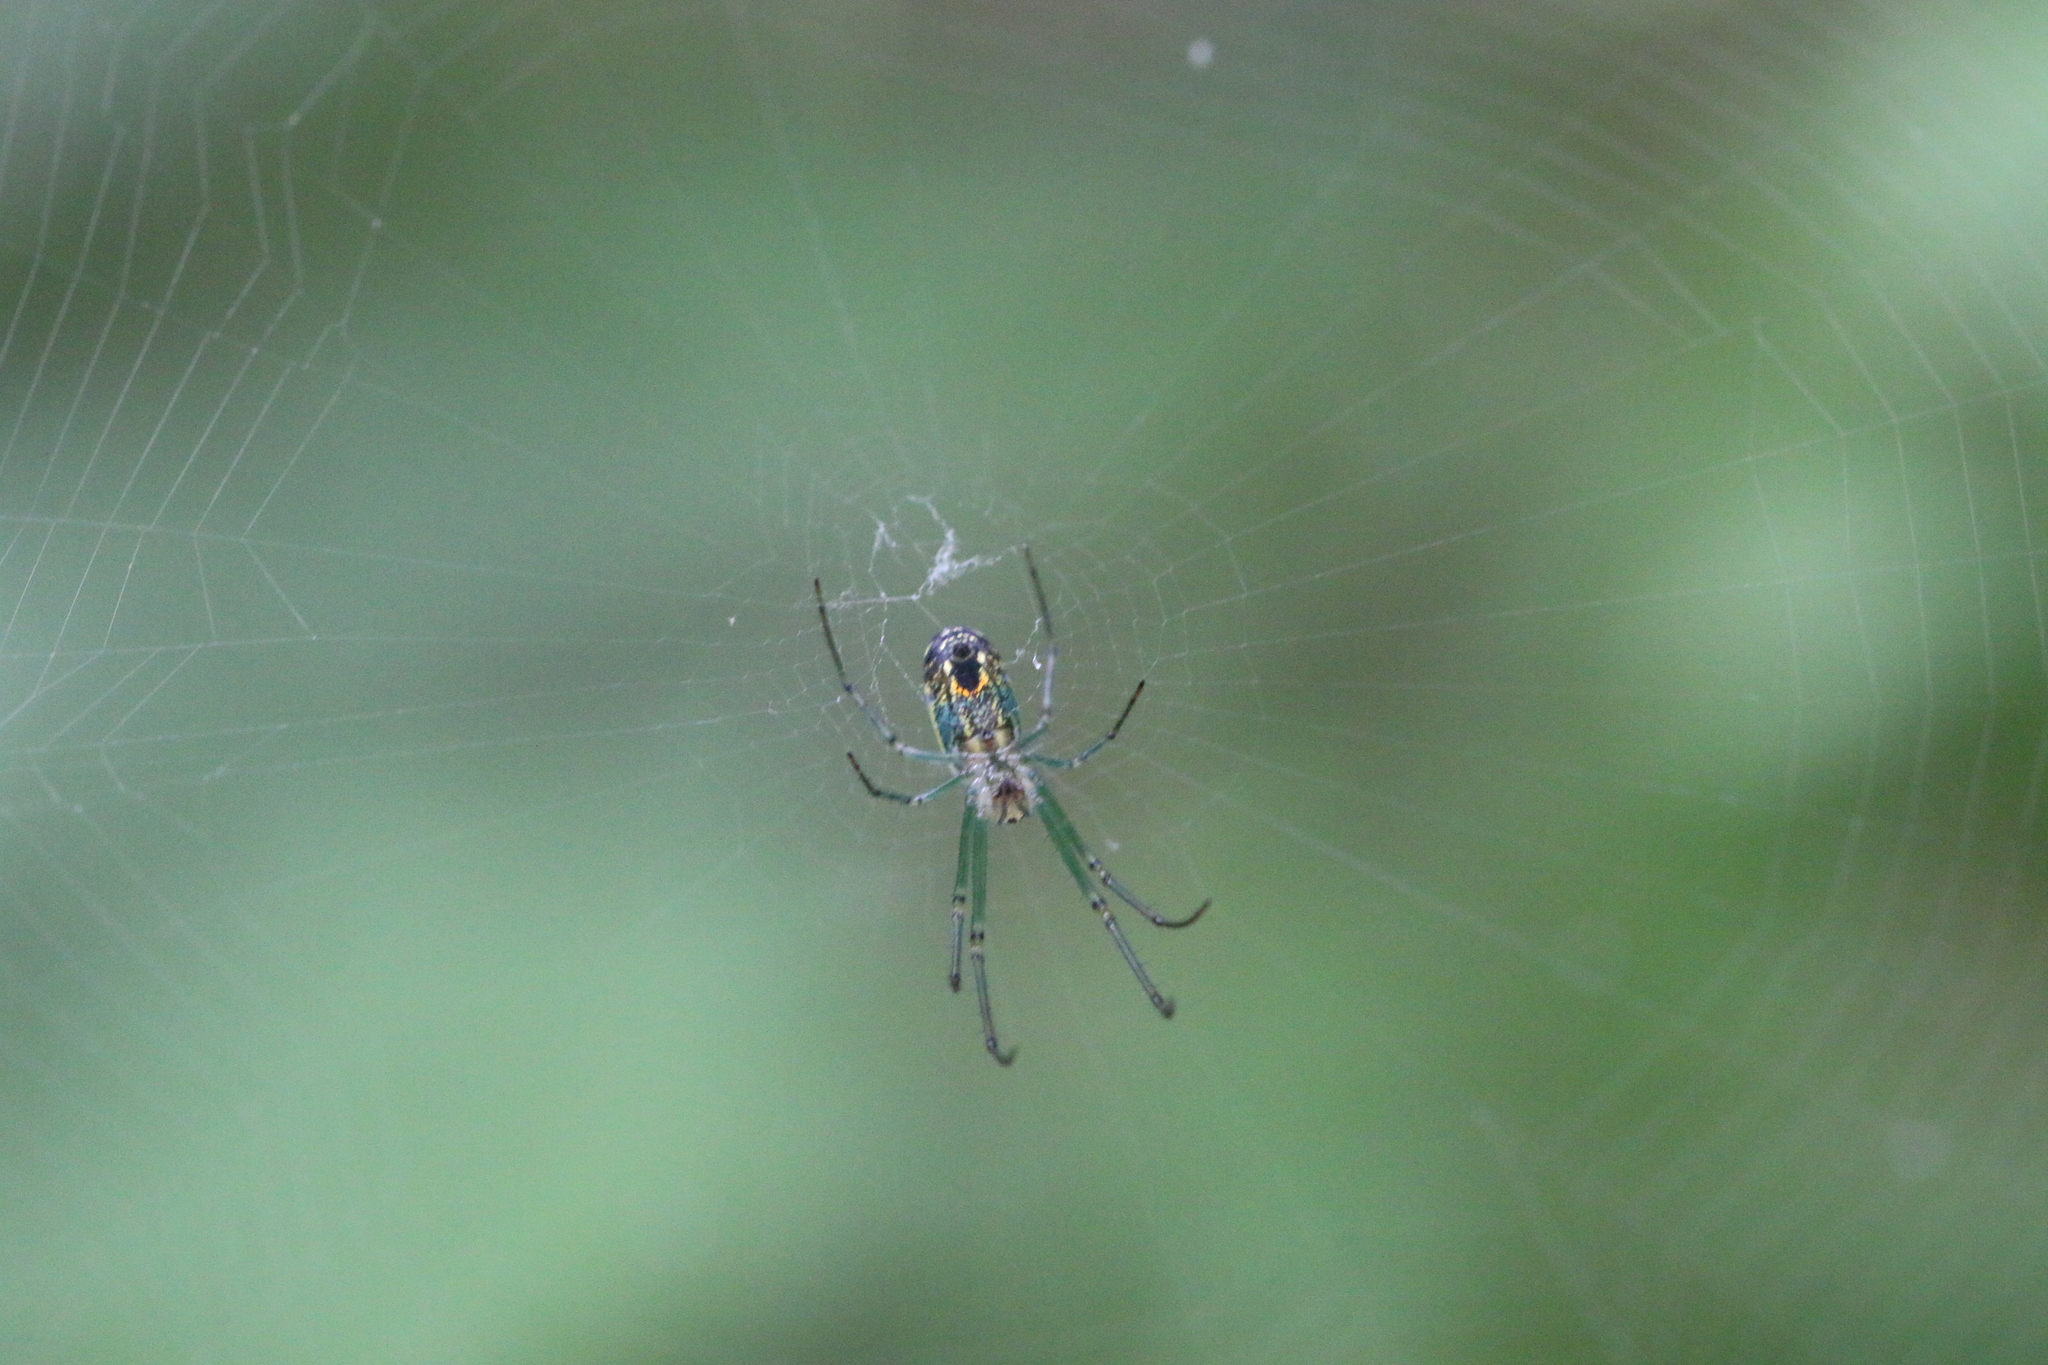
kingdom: Animalia
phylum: Arthropoda
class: Arachnida
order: Araneae
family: Tetragnathidae
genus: Leucauge
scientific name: Leucauge venusta
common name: Longjawed orb weavers
